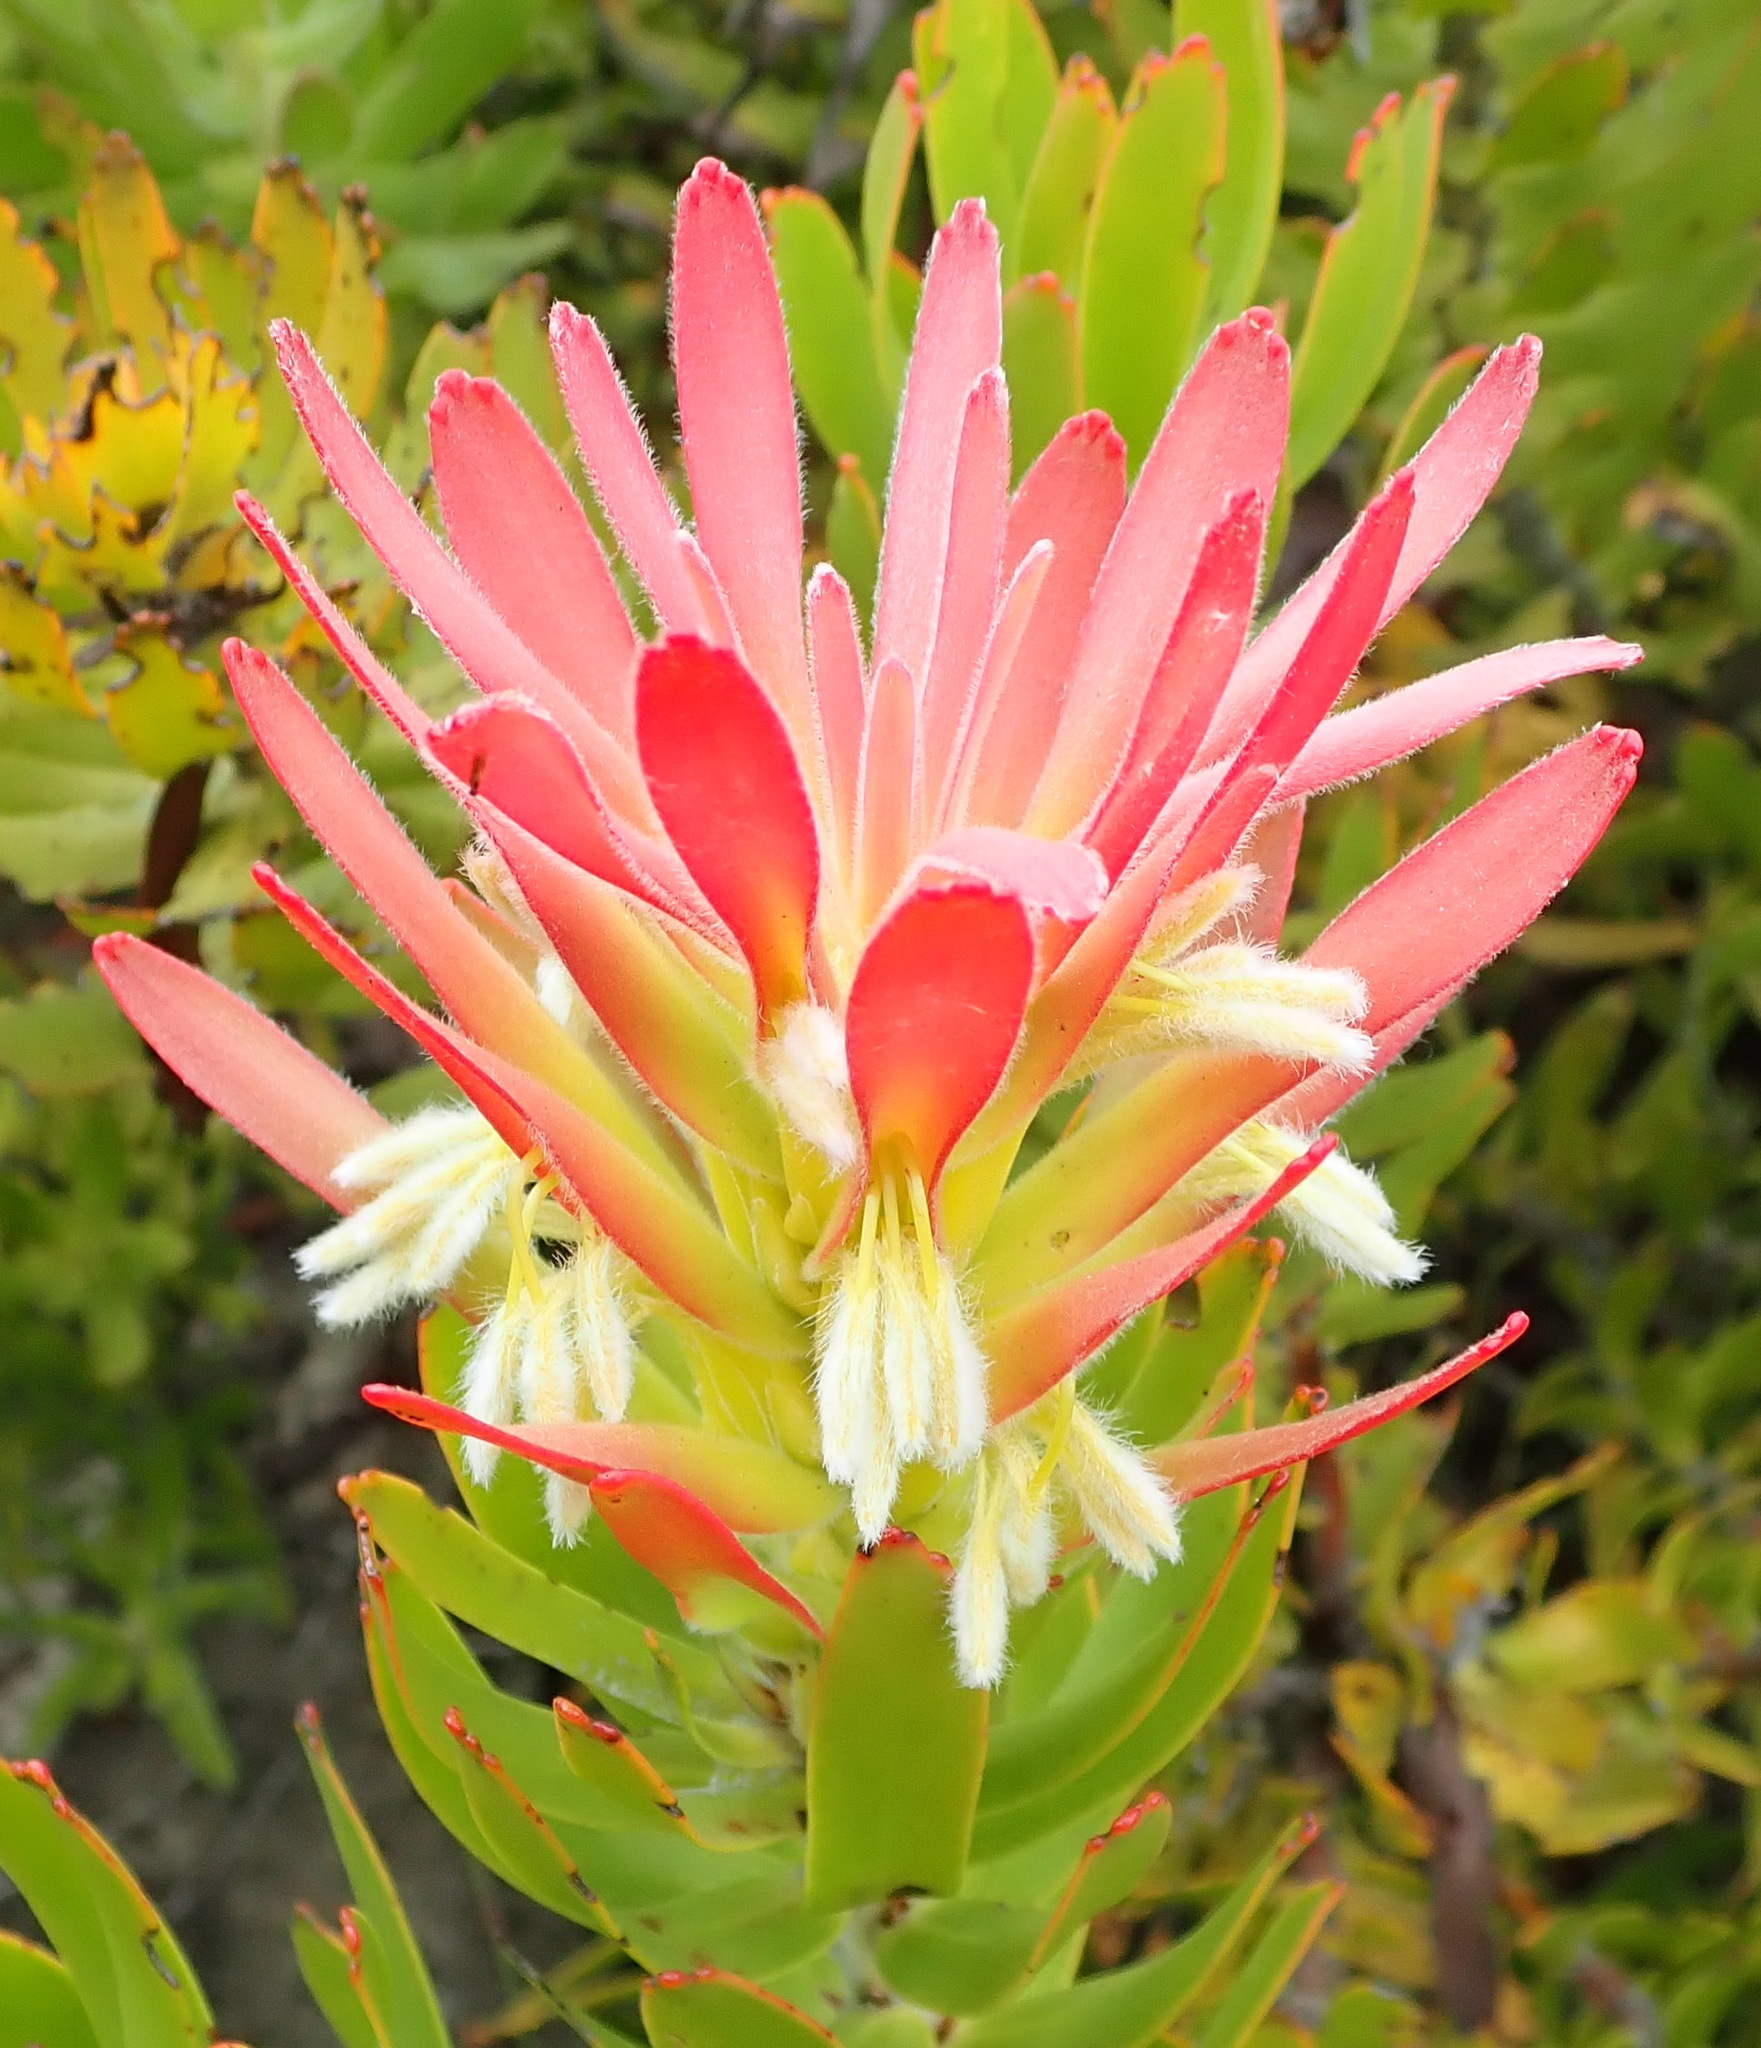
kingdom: Plantae
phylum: Tracheophyta
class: Magnoliopsida
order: Proteales
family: Proteaceae
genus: Mimetes
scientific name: Mimetes cucullatus
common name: Common pagoda
